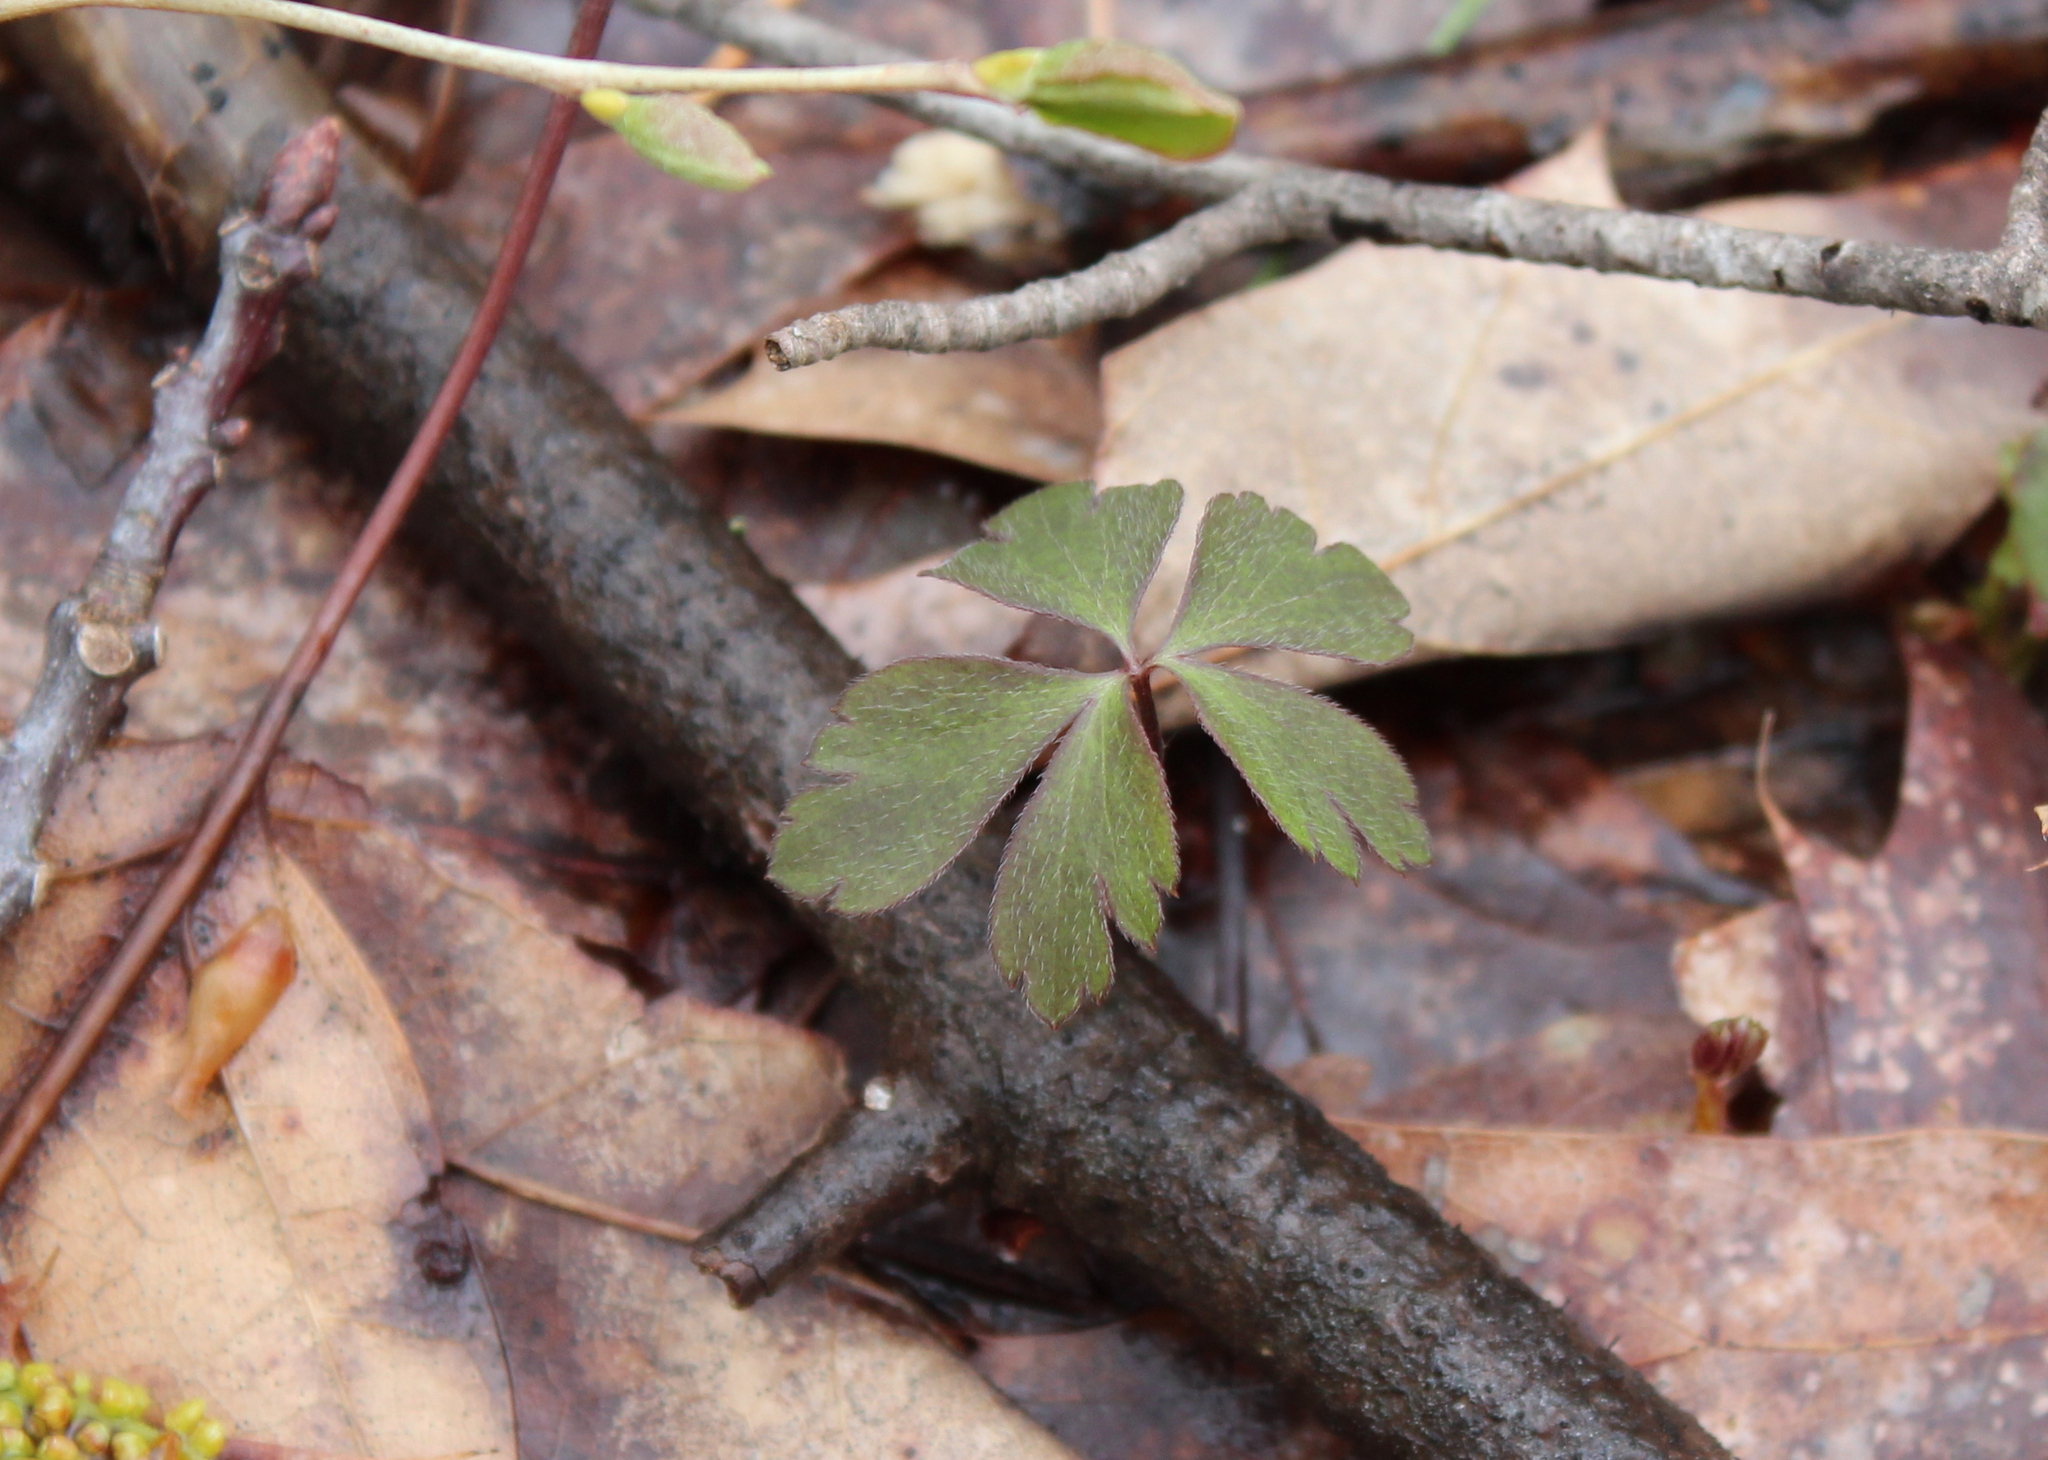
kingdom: Plantae
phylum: Tracheophyta
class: Magnoliopsida
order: Ranunculales
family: Ranunculaceae
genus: Anemone
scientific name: Anemone quinquefolia
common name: Wood anemone
